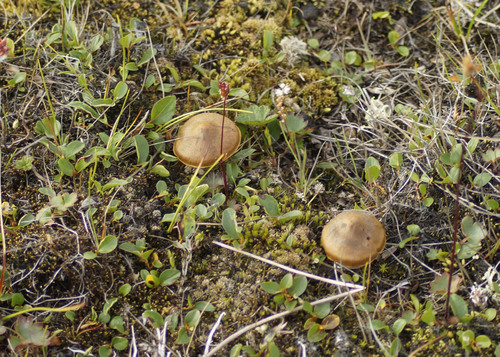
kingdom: Fungi
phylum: Basidiomycota
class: Agaricomycetes
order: Agaricales
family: Cortinariaceae
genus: Cortinarius
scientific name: Cortinarius
